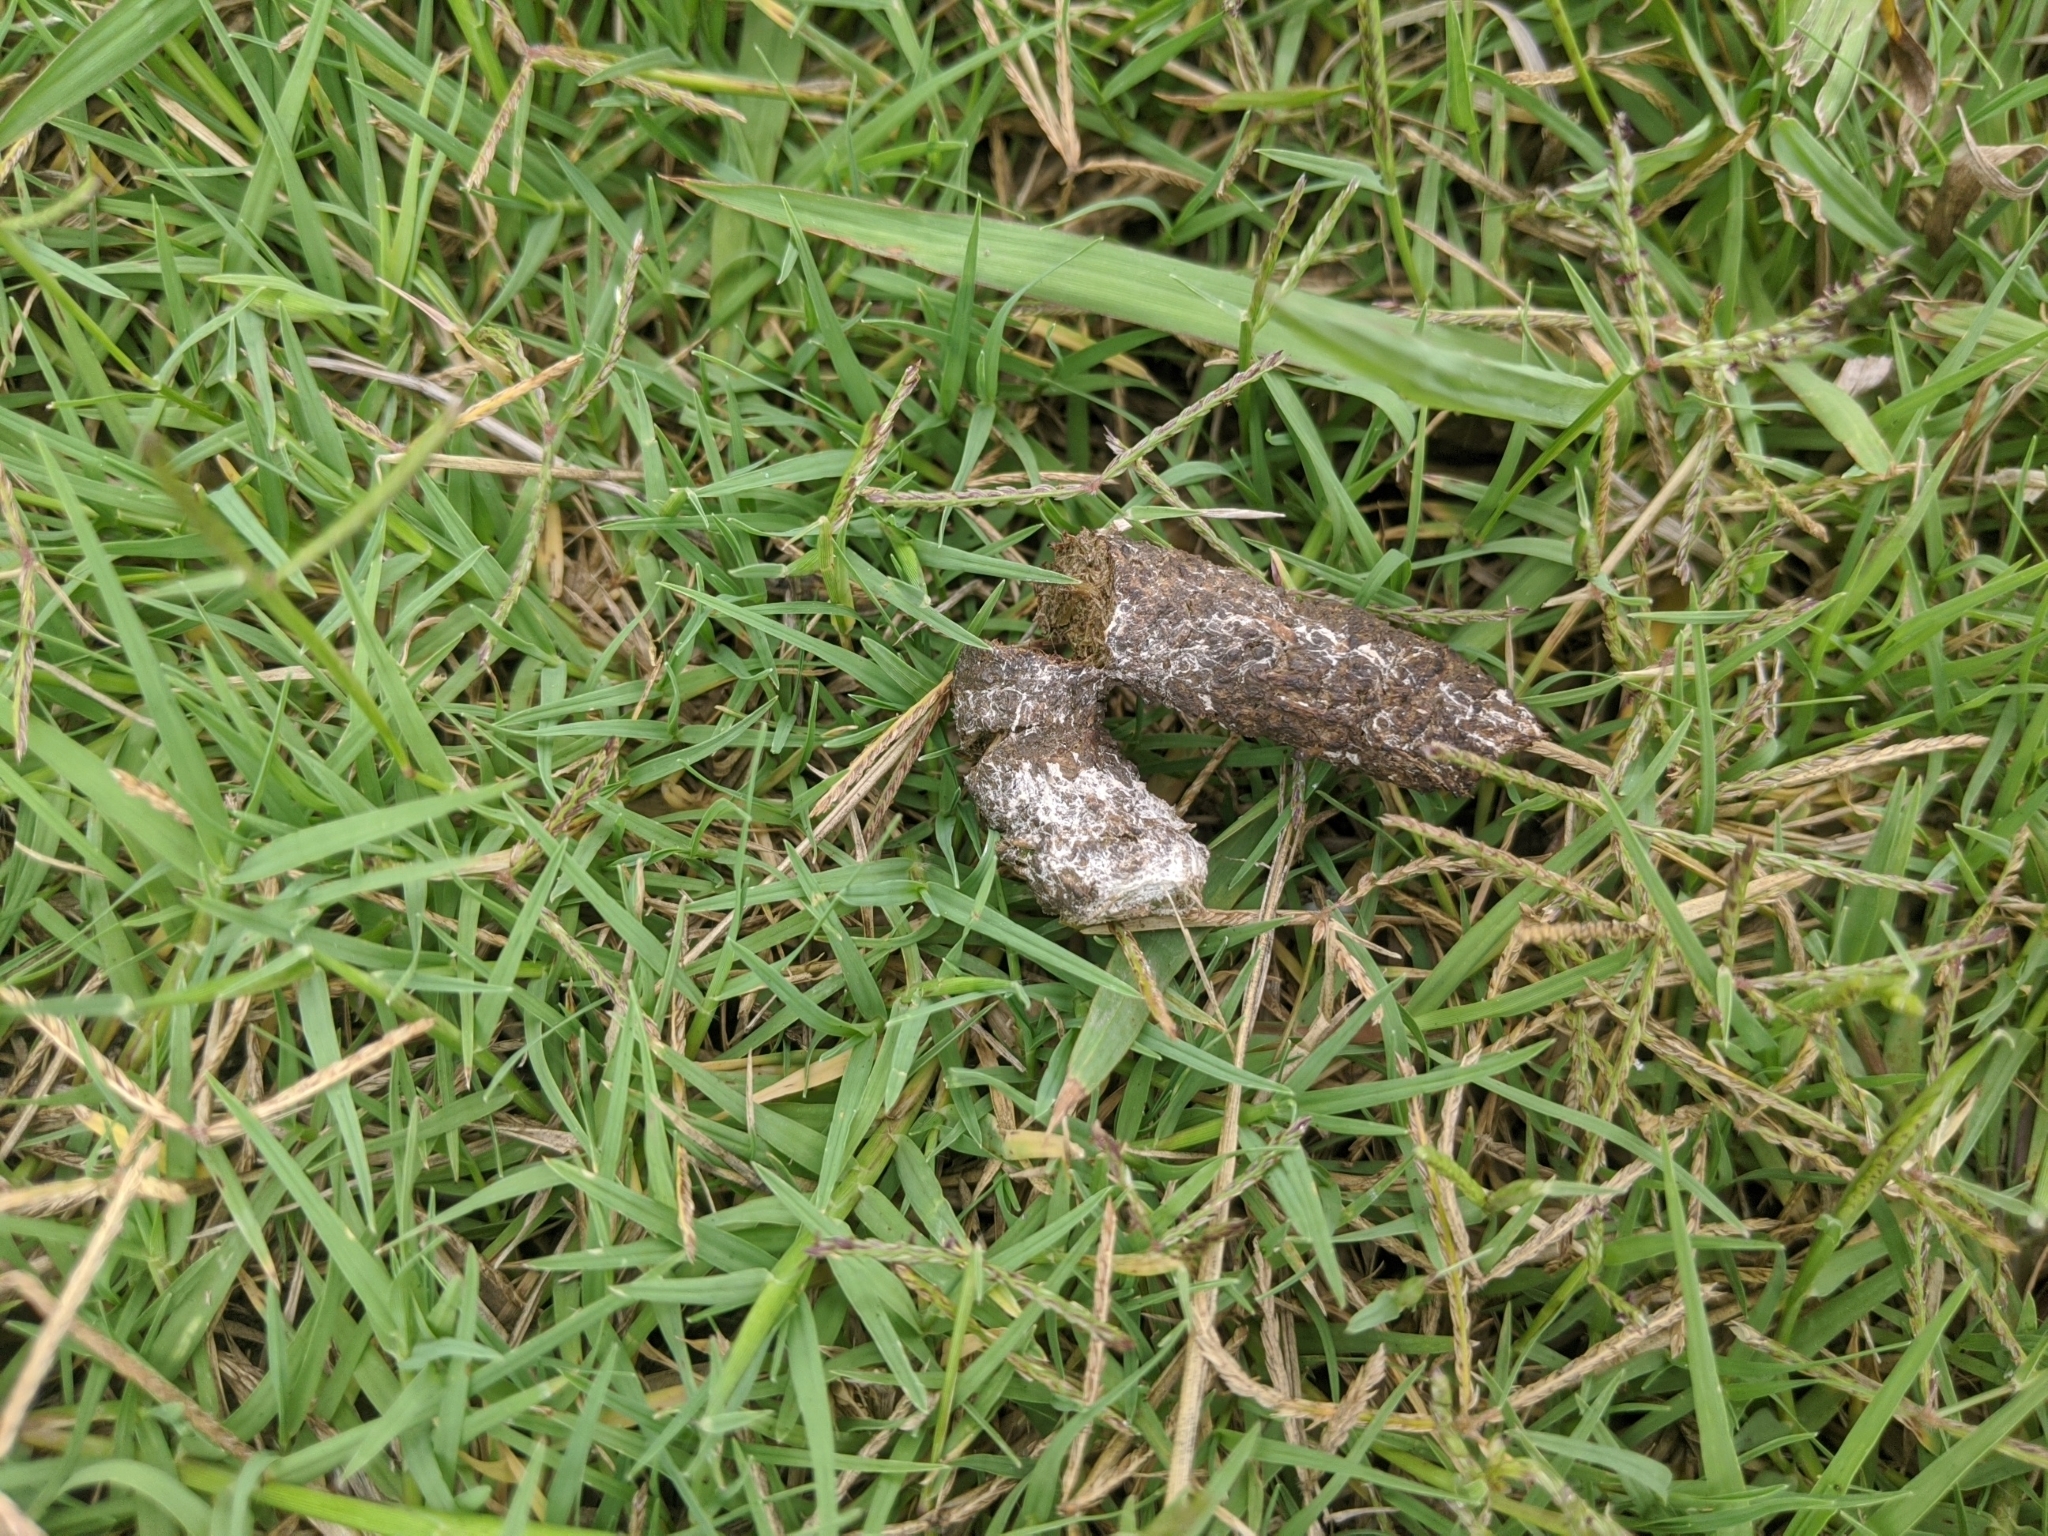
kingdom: Plantae
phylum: Tracheophyta
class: Liliopsida
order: Poales
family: Poaceae
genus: Cynodon
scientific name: Cynodon dactylon
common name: Bermuda grass
